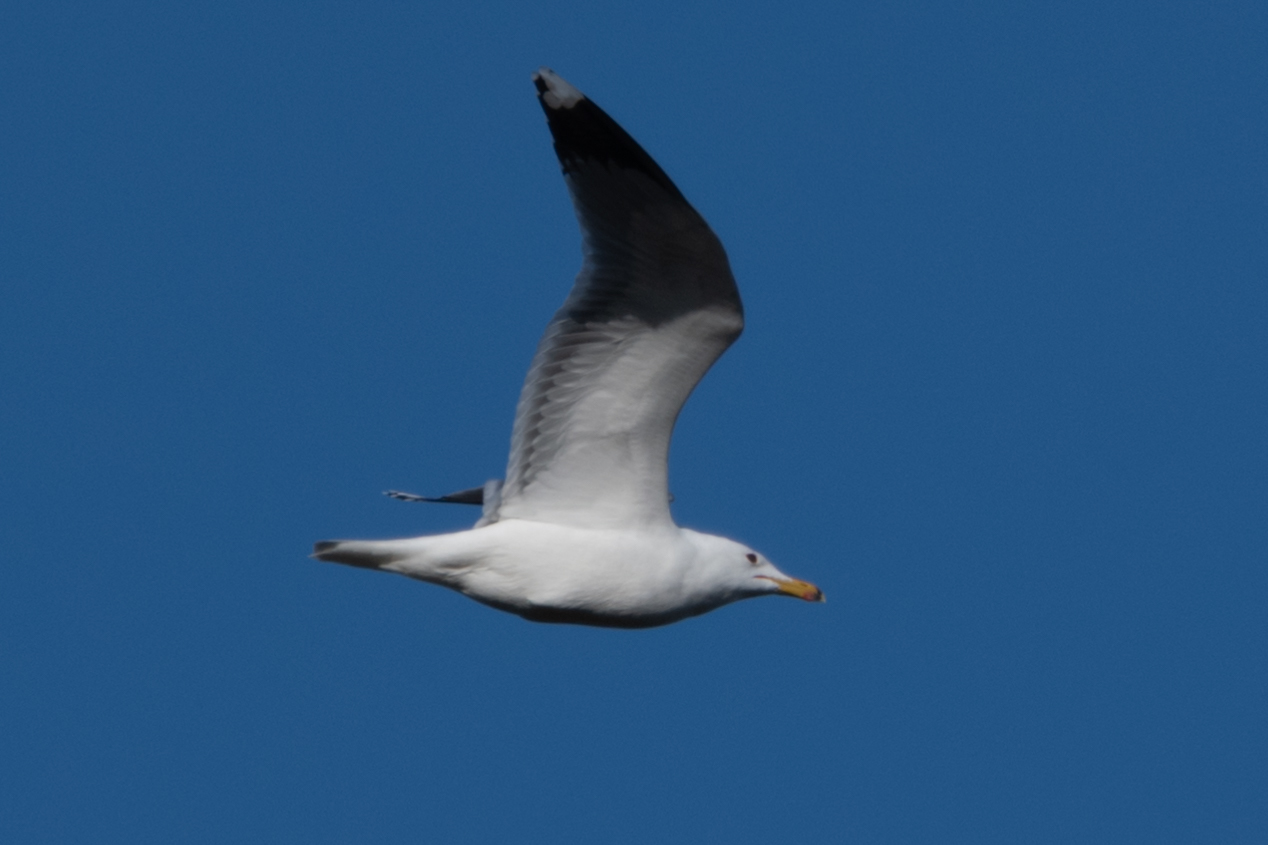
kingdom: Animalia
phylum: Chordata
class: Aves
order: Charadriiformes
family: Laridae
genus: Larus
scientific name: Larus californicus
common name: California gull
